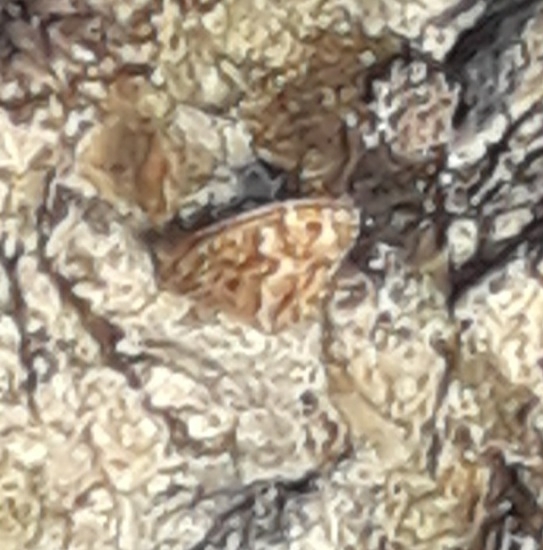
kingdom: Animalia
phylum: Arthropoda
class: Insecta
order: Lepidoptera
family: Nymphalidae
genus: Hipparchia
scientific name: Hipparchia semele
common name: Grayling
